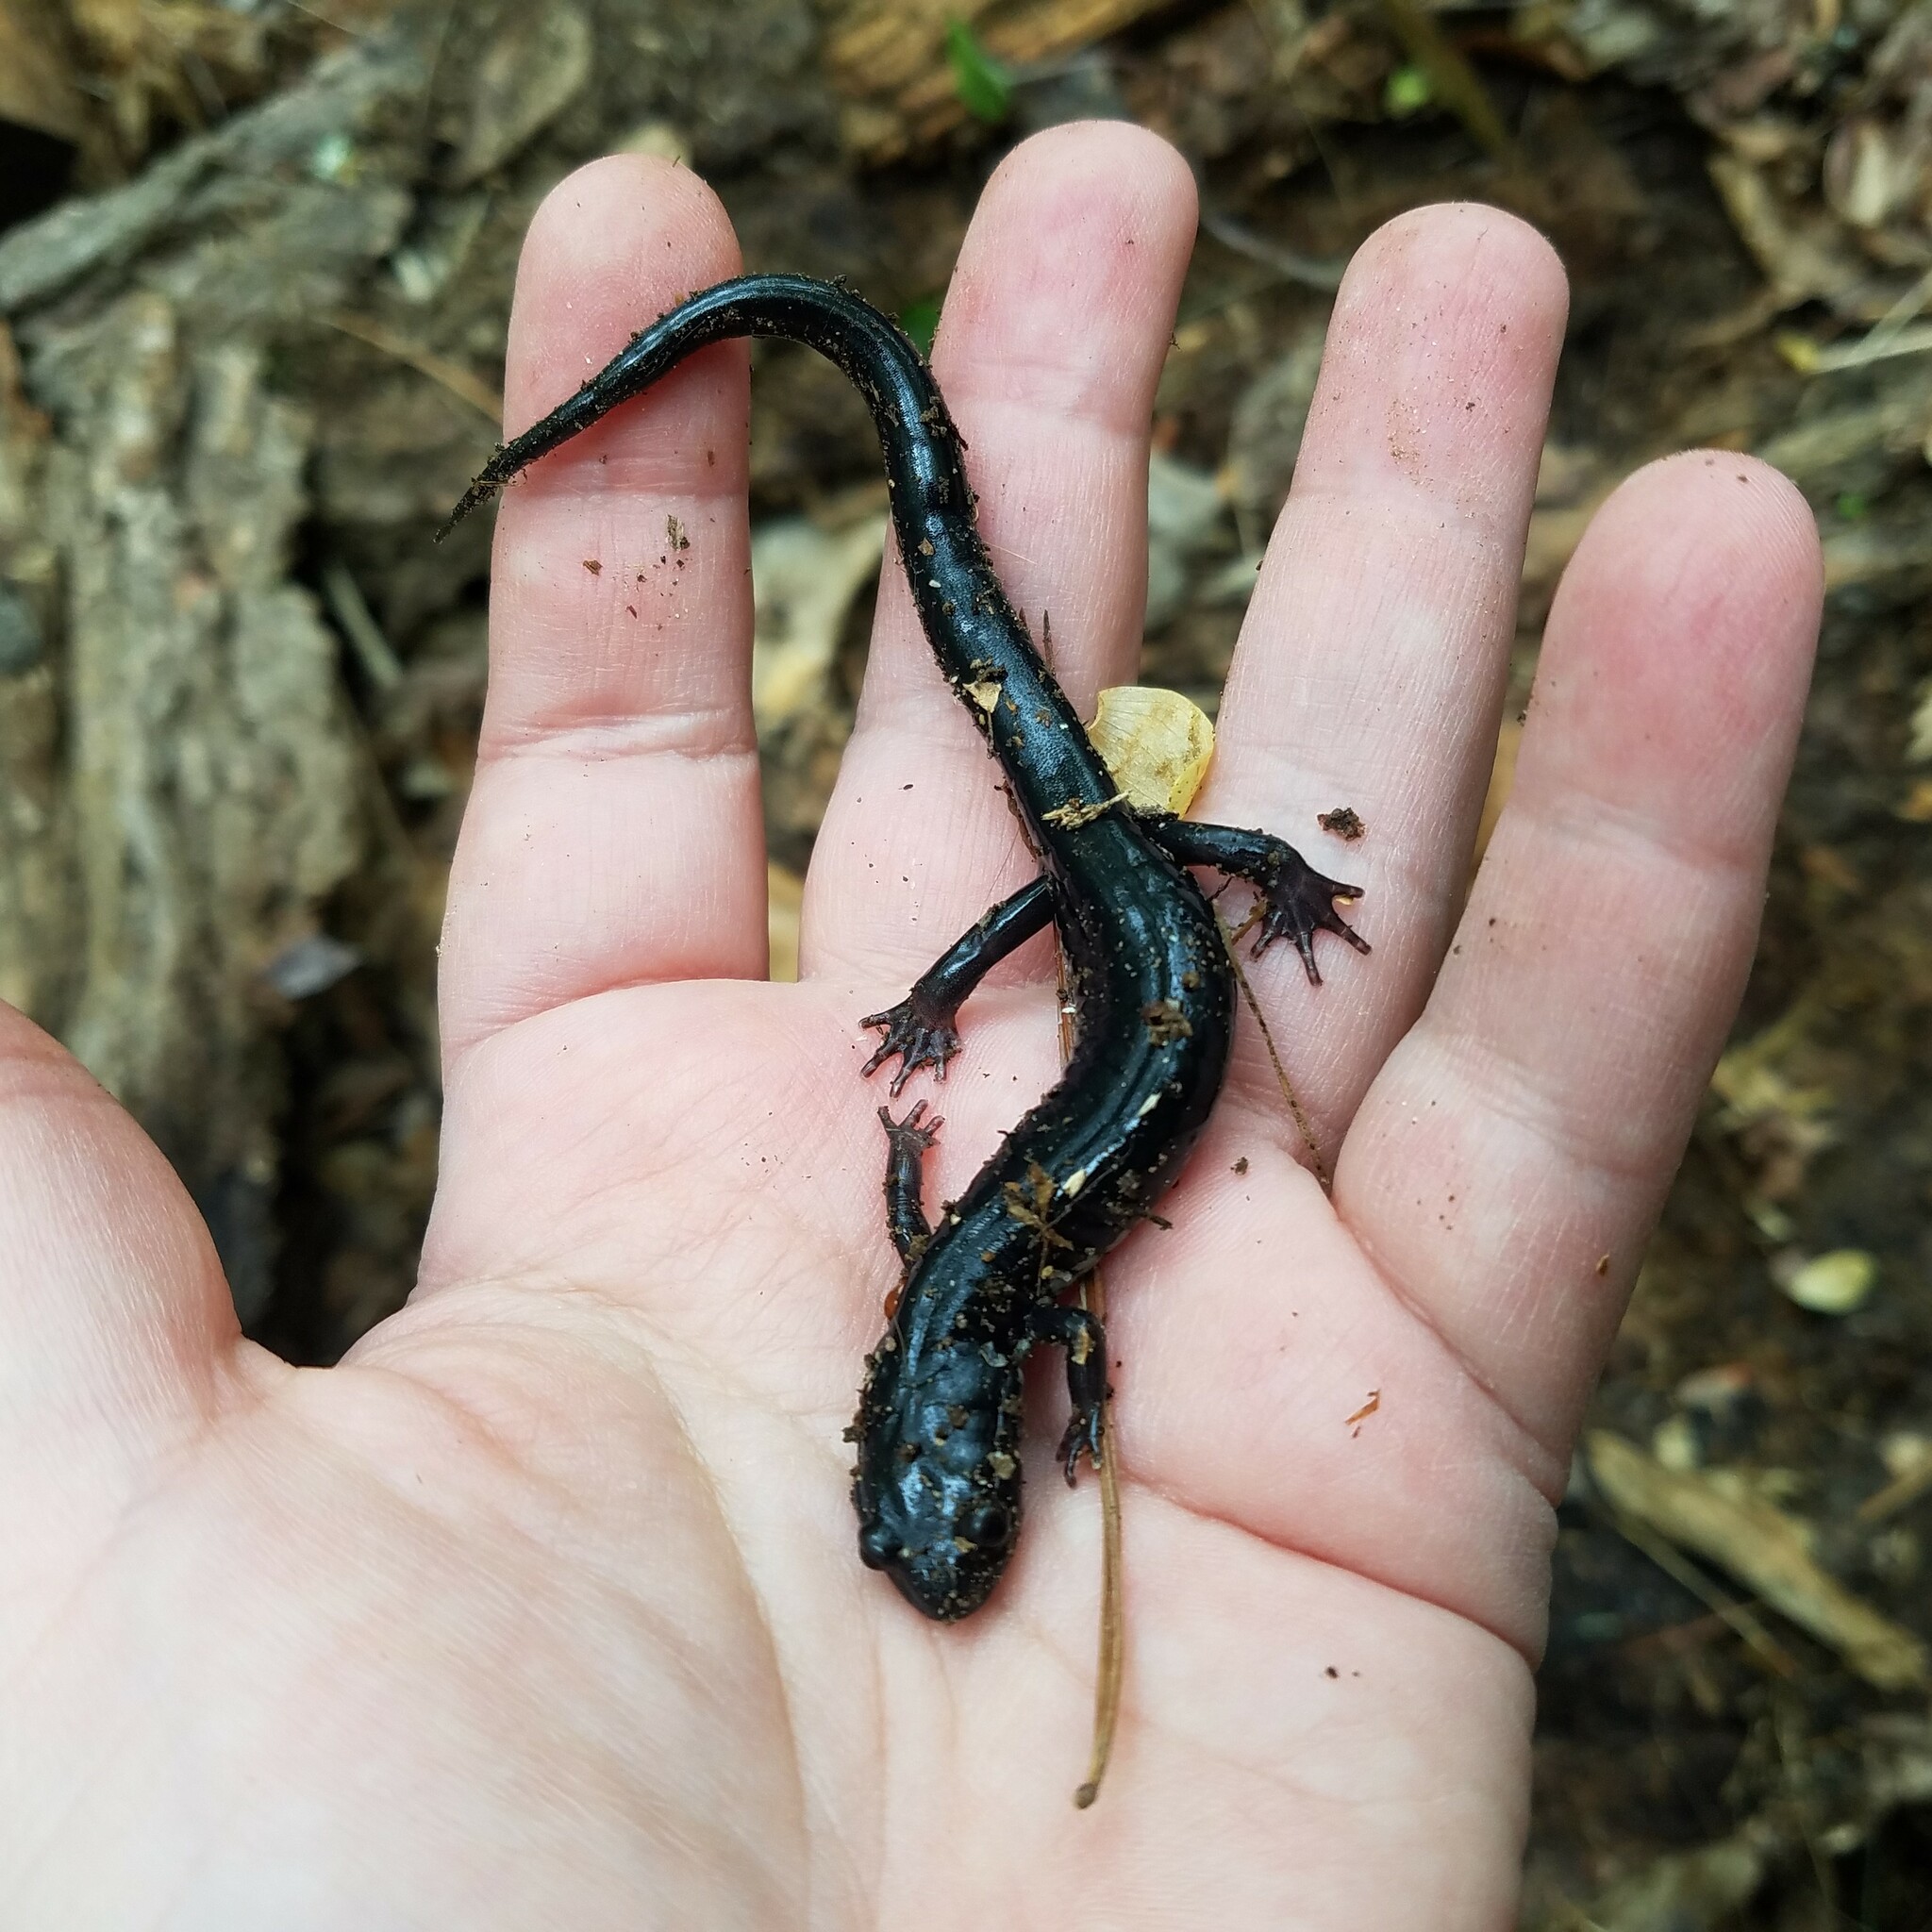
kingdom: Animalia
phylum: Chordata
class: Amphibia
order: Caudata
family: Plethodontidae
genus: Plethodon
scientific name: Plethodon chattahoochee
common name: Chattahoochee slimy salamander
